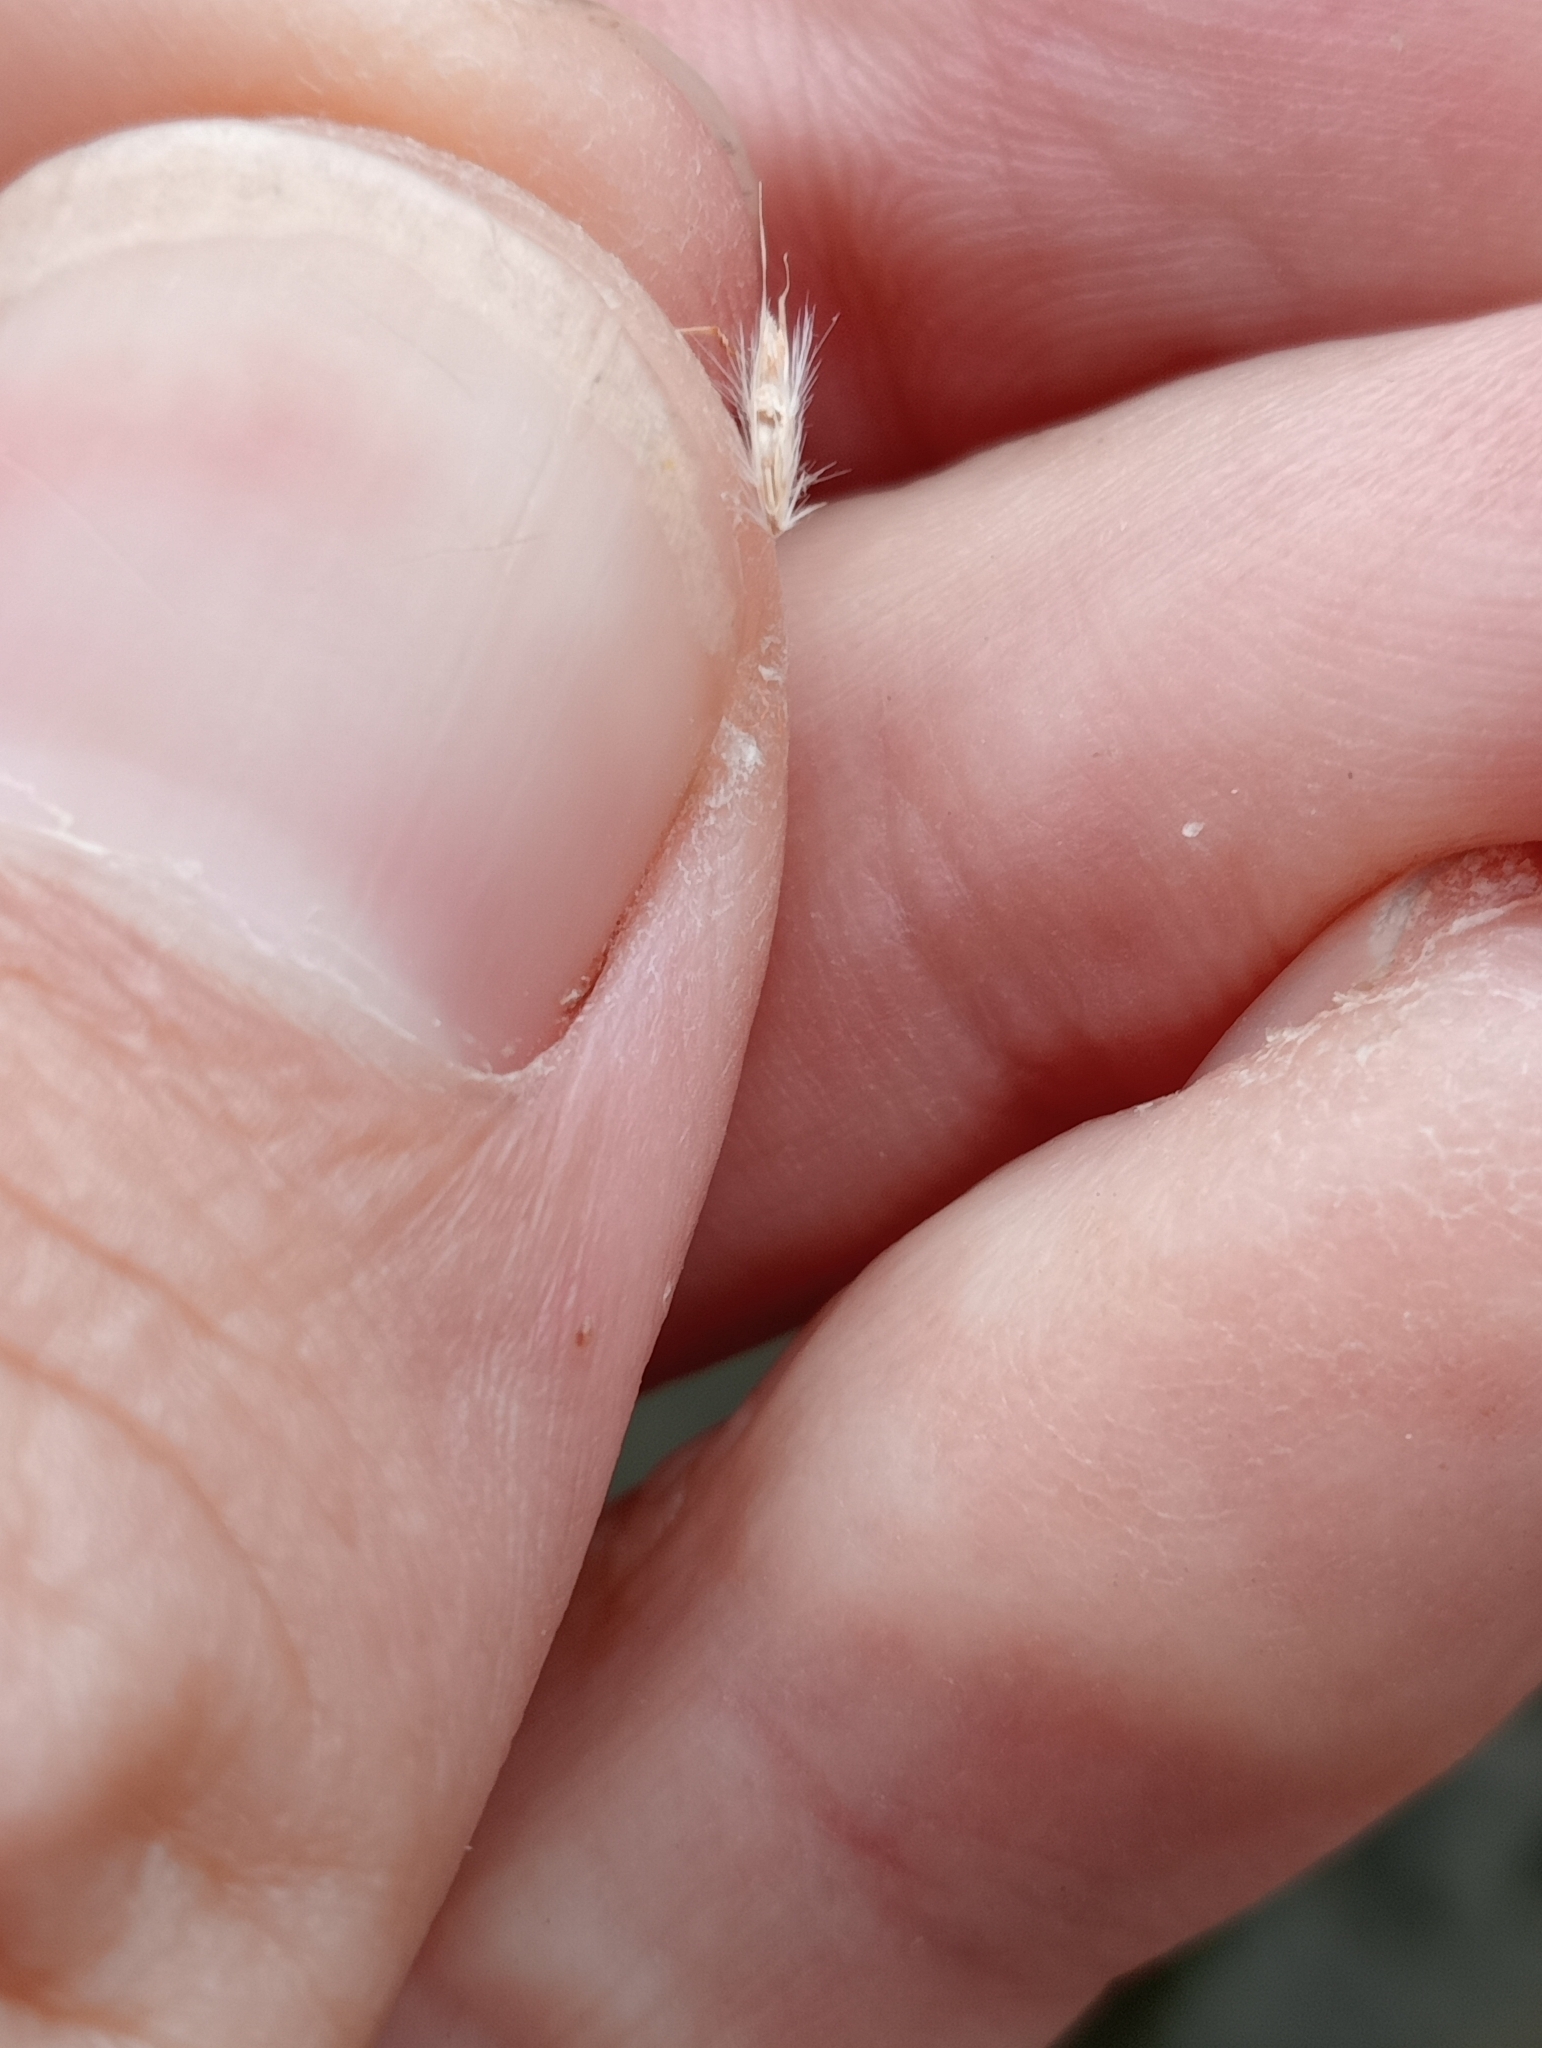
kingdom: Plantae
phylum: Tracheophyta
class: Liliopsida
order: Poales
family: Poaceae
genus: Rytidosperma
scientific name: Rytidosperma setifolium
